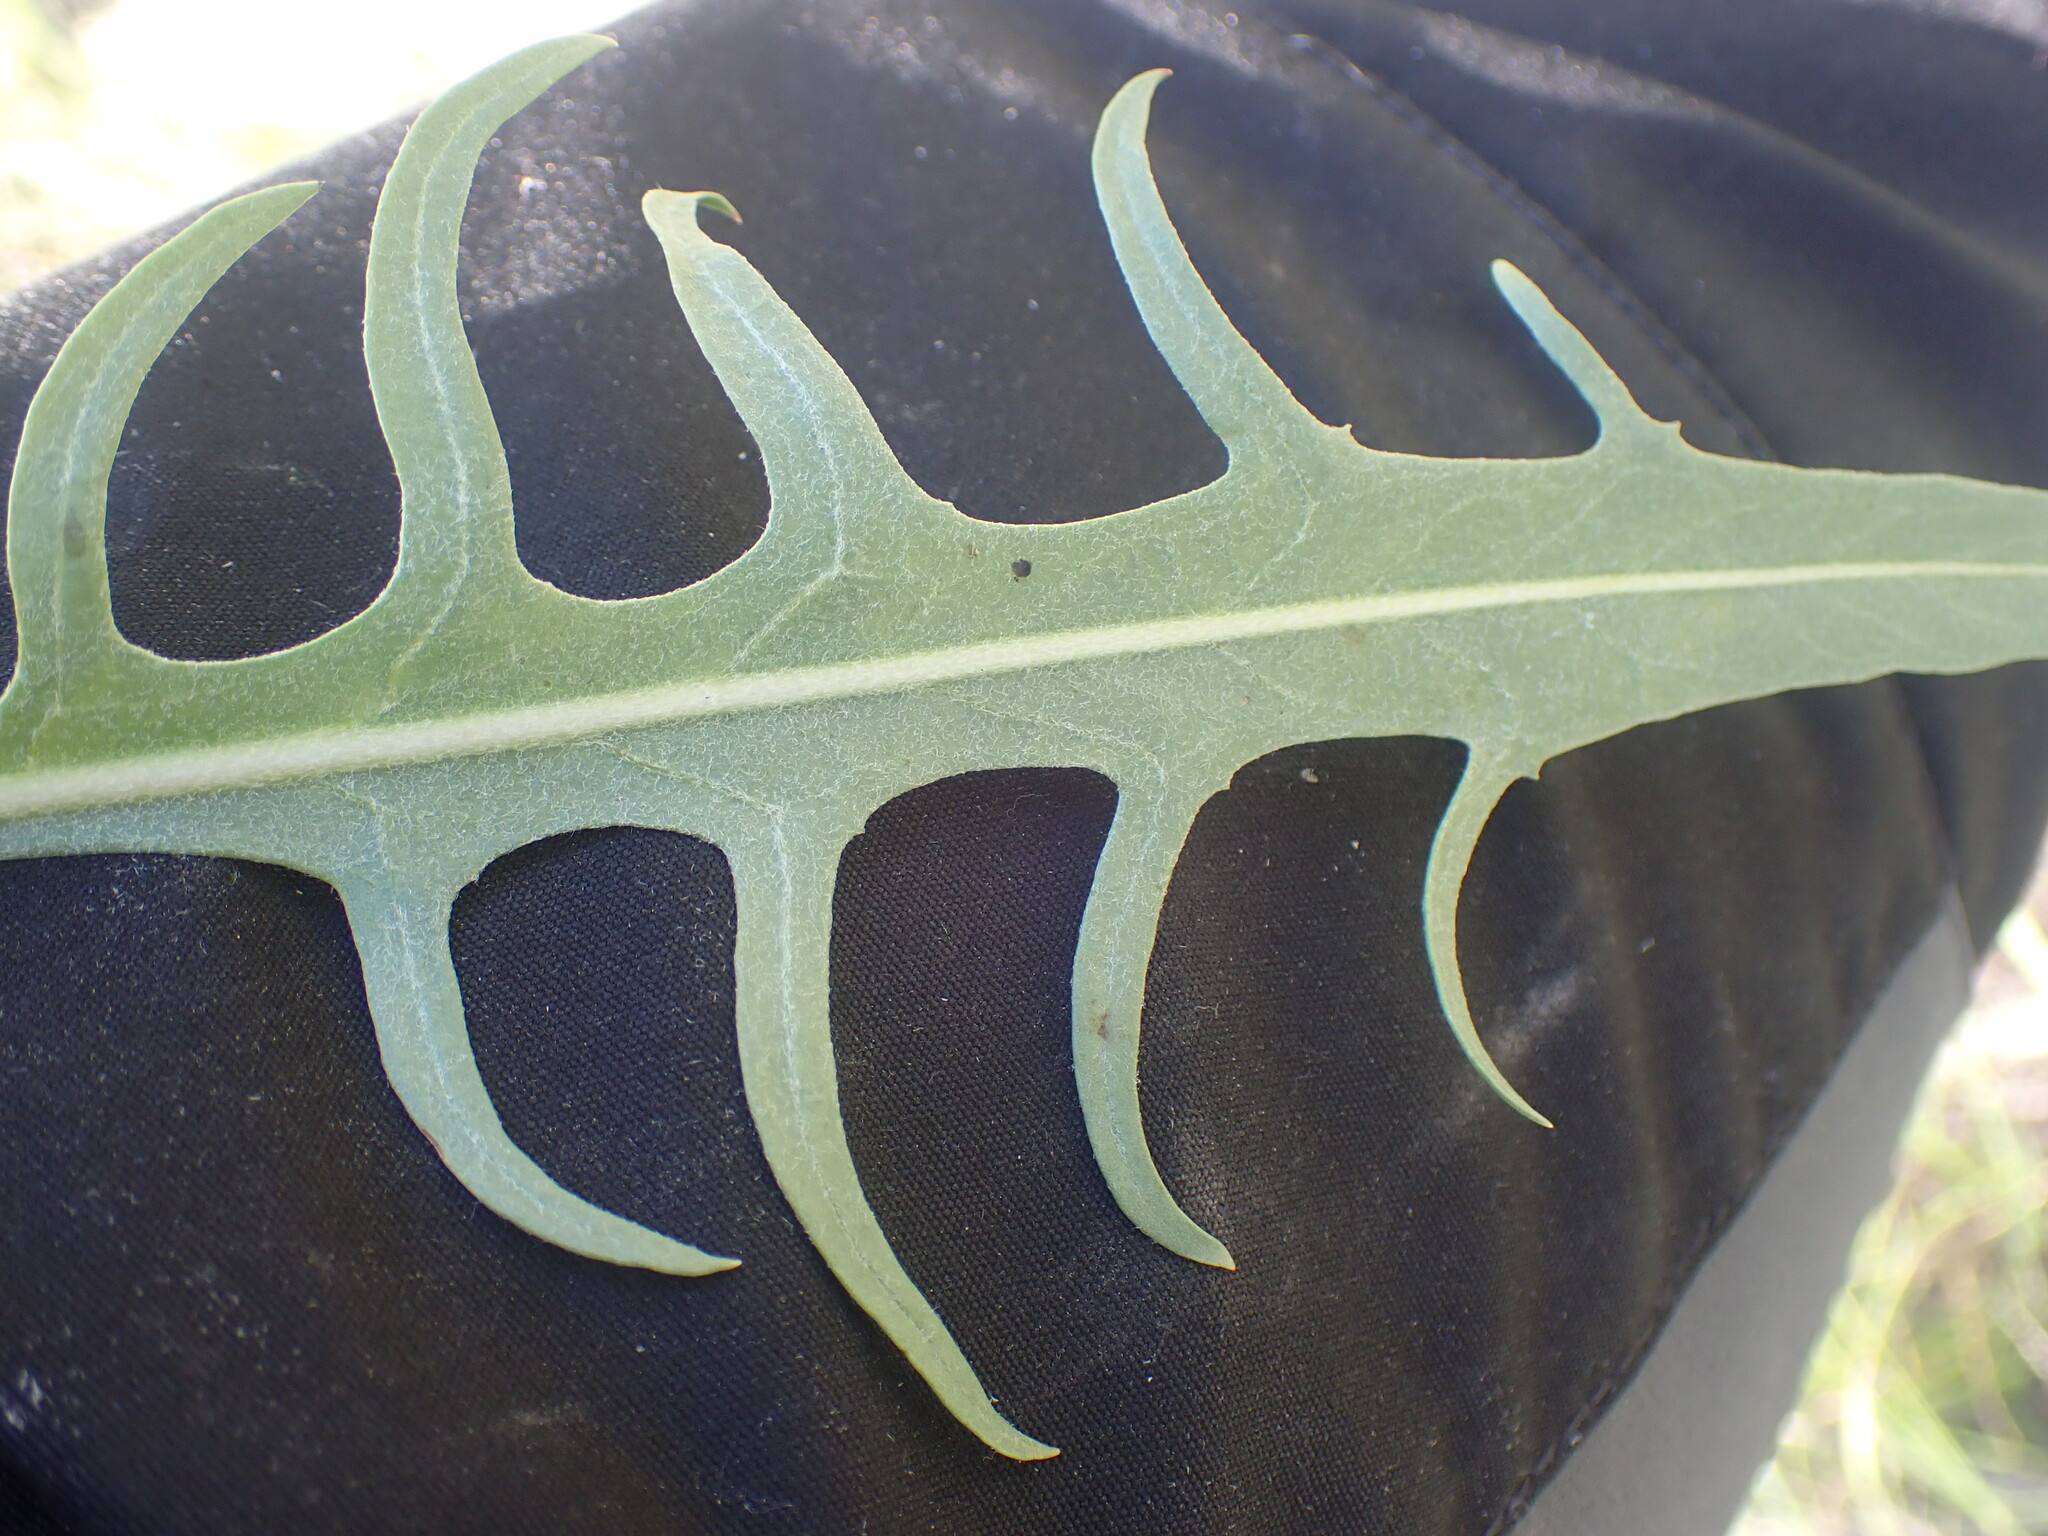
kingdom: Plantae
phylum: Tracheophyta
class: Magnoliopsida
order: Asterales
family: Asteraceae
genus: Crepis
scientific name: Crepis atribarba
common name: Dark hawk's-beard
